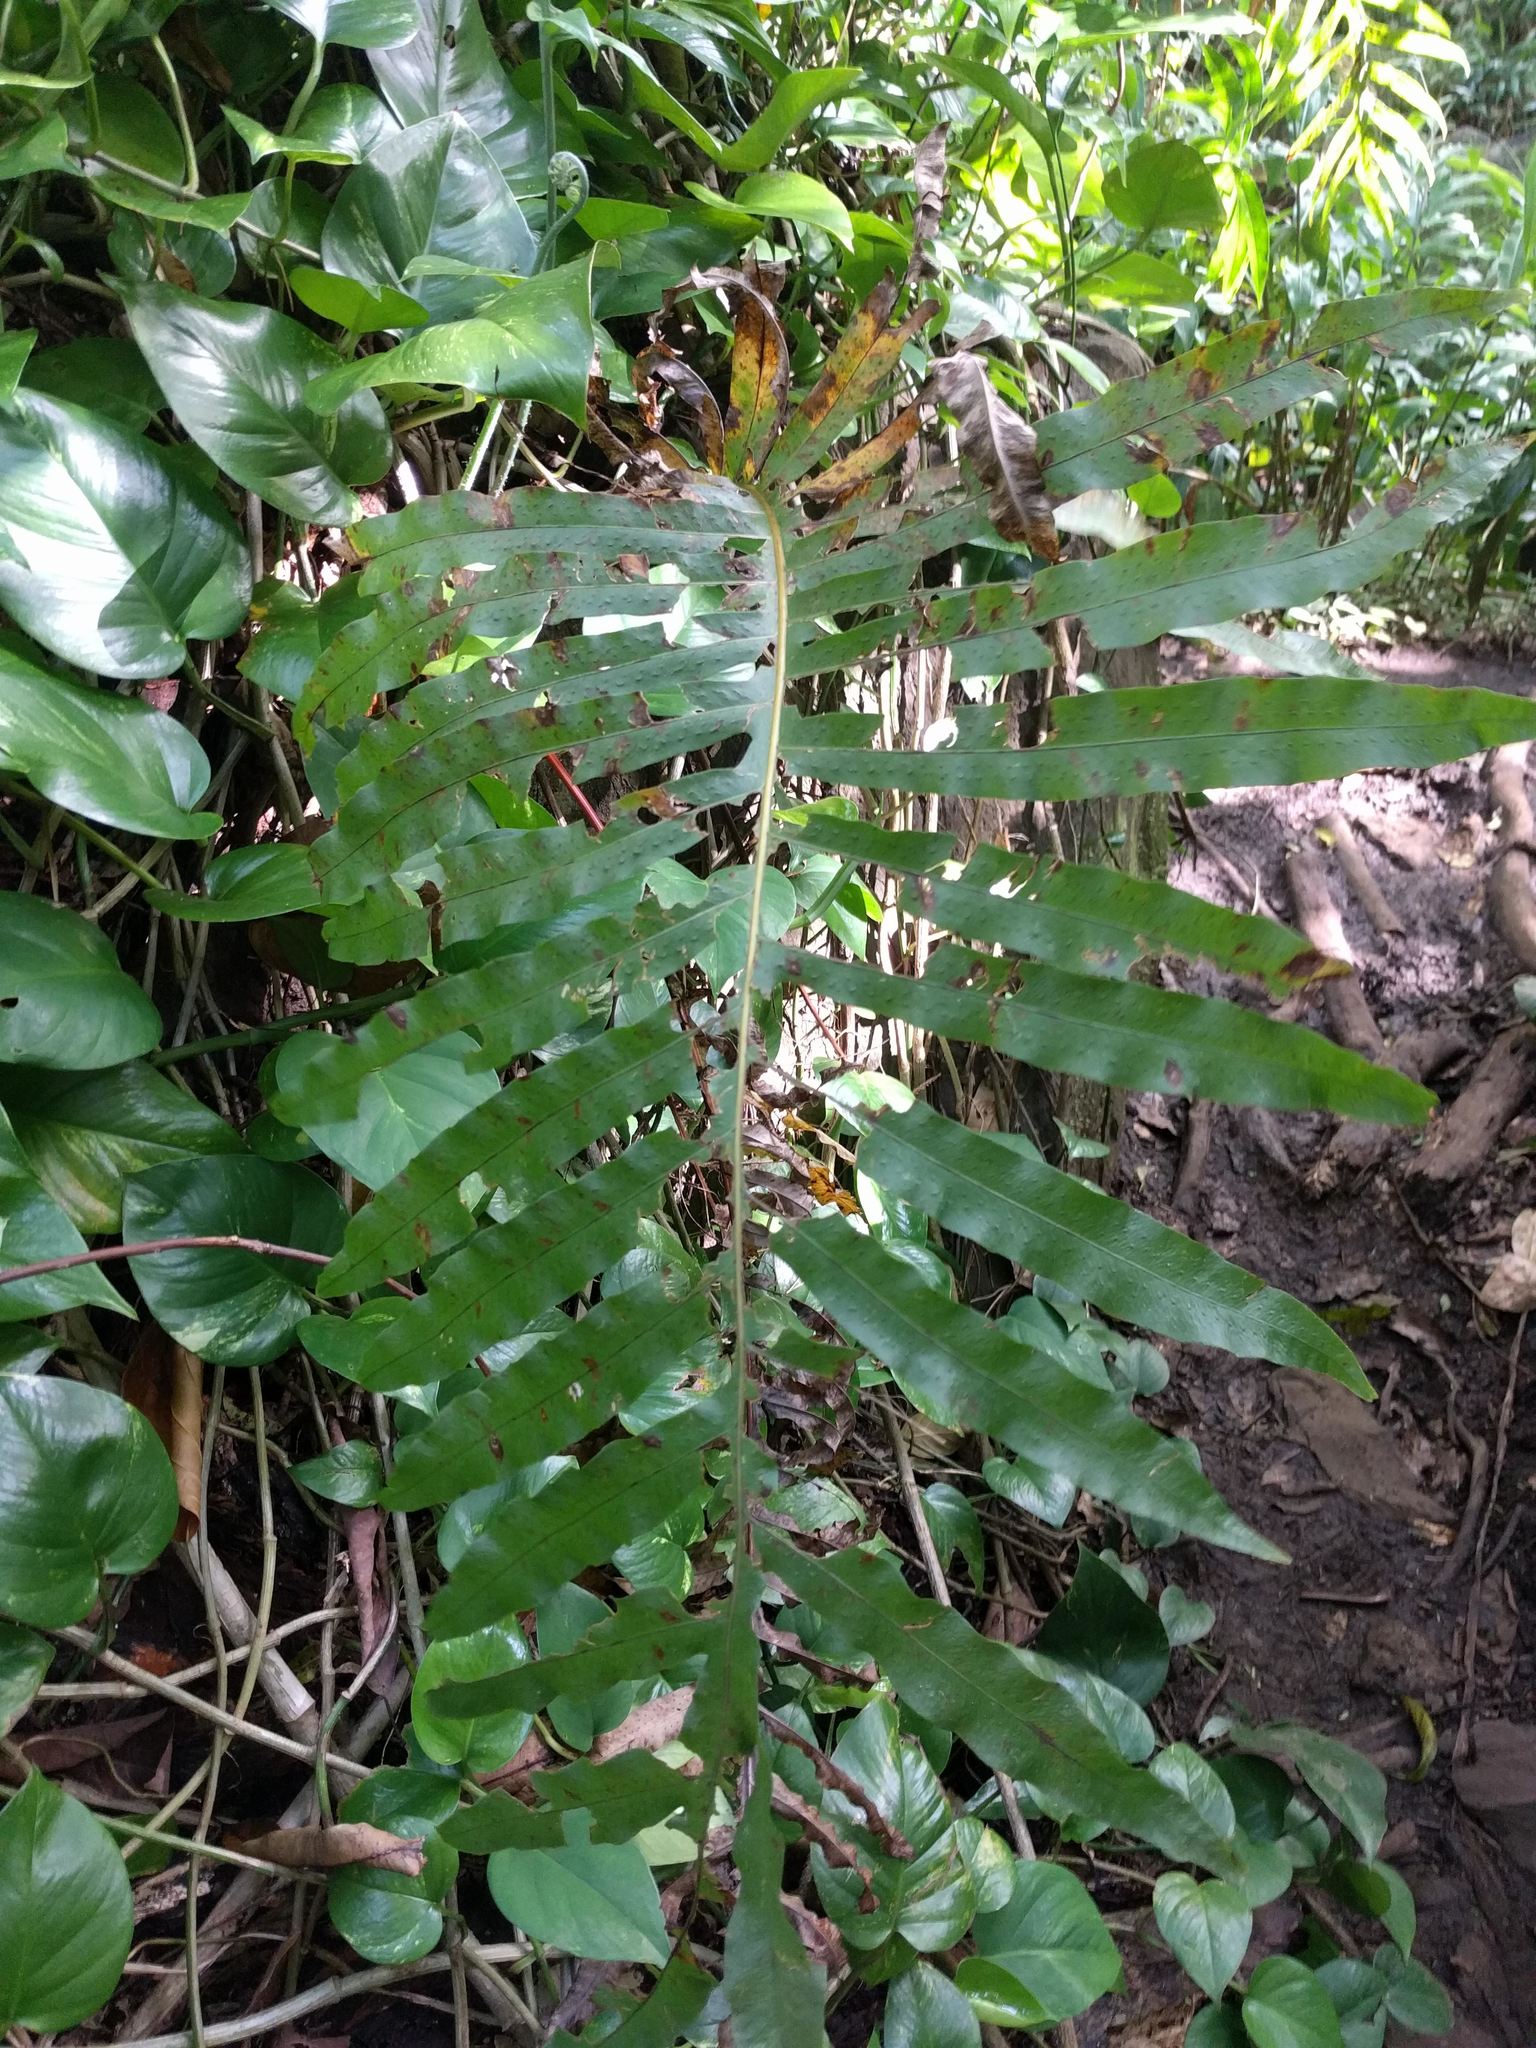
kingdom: Plantae
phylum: Tracheophyta
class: Polypodiopsida
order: Polypodiales
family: Polypodiaceae
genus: Phlebodium
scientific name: Phlebodium aureum
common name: Gold-foot fern
